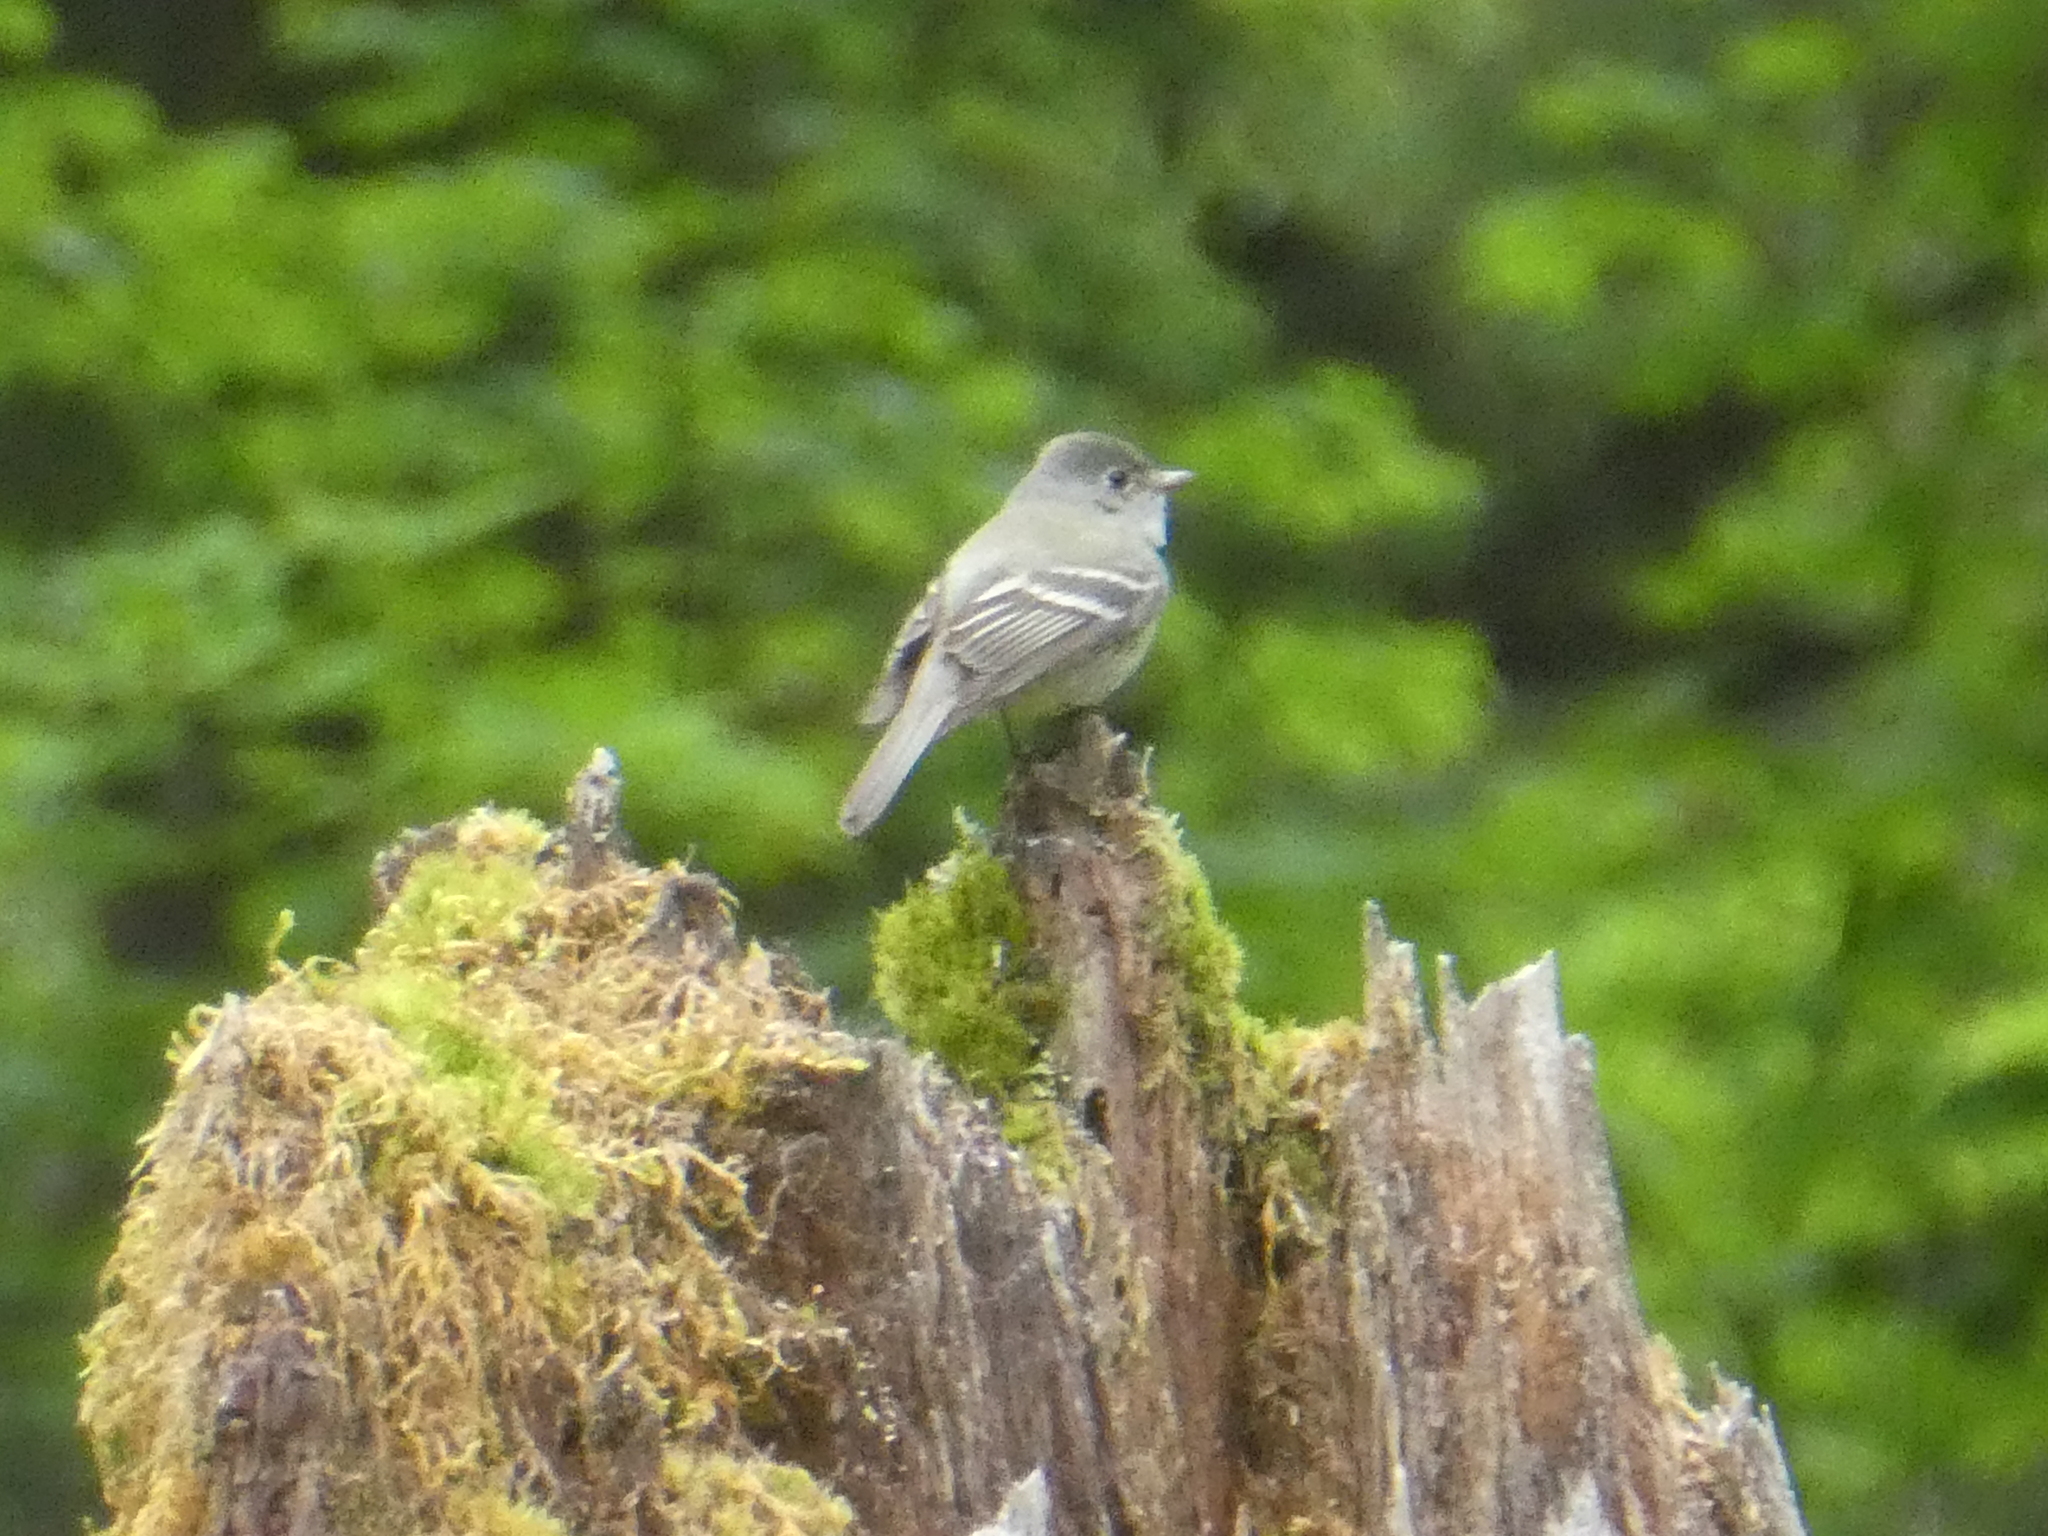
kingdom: Animalia
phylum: Chordata
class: Aves
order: Passeriformes
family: Tyrannidae
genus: Empidonax
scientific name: Empidonax hammondii
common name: Hammond's flycatcher
